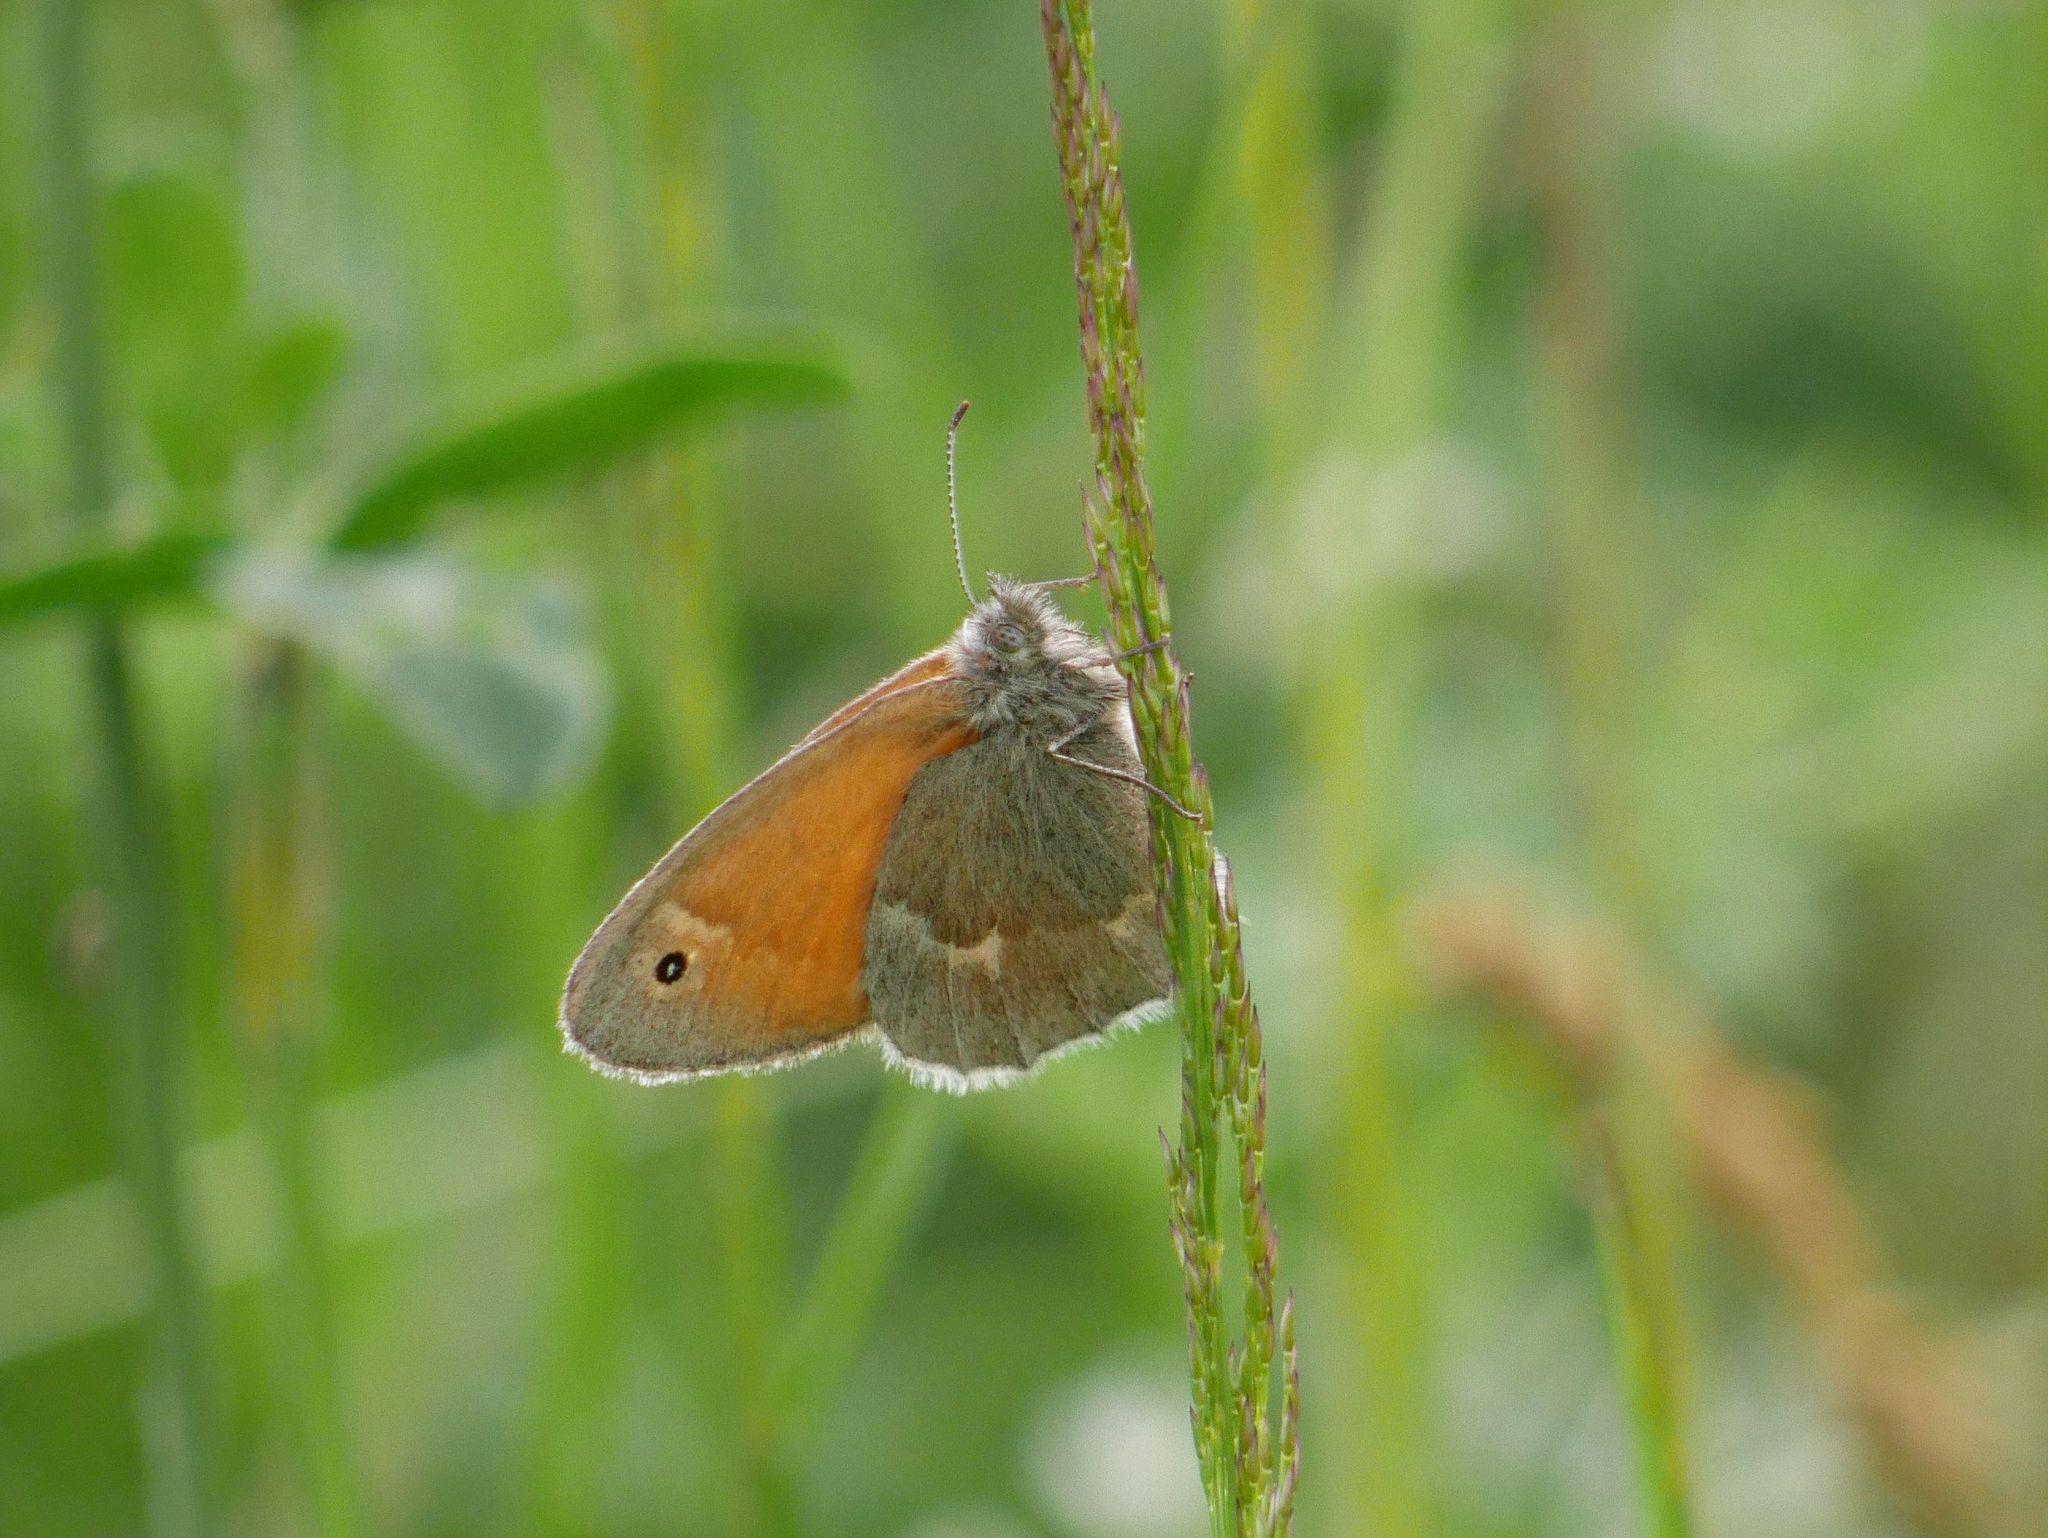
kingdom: Animalia
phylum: Arthropoda
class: Insecta
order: Lepidoptera
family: Nymphalidae
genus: Coenonympha
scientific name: Coenonympha california
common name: Common ringlet
